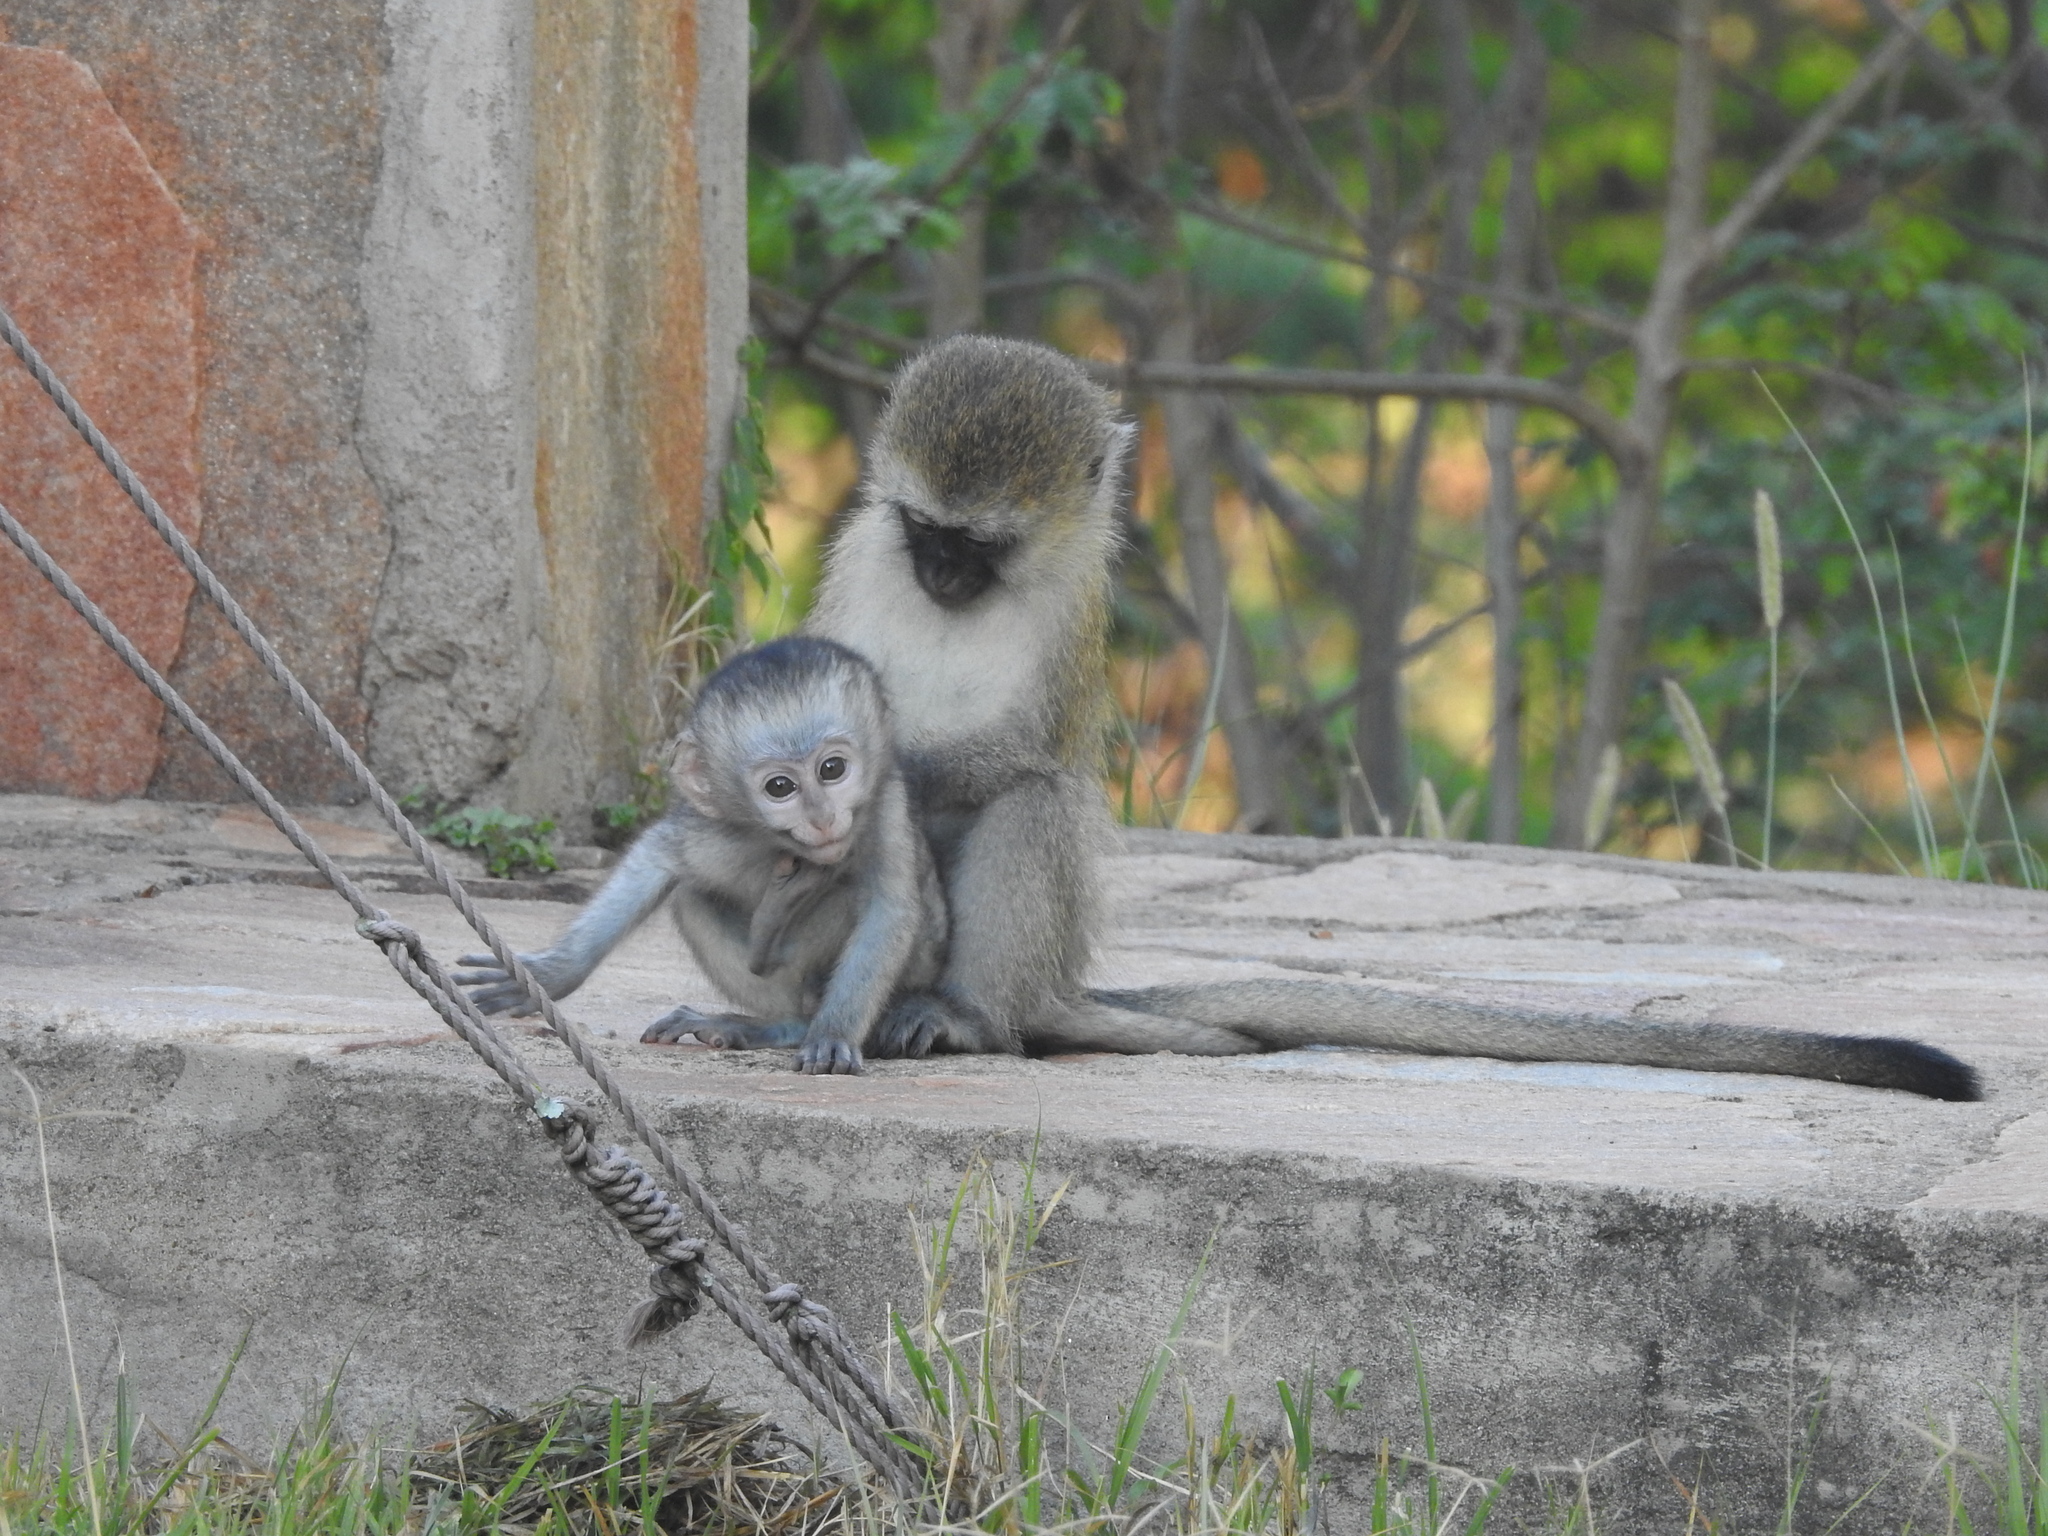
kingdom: Animalia
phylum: Chordata
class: Mammalia
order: Primates
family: Cercopithecidae
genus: Chlorocebus
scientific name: Chlorocebus pygerythrus
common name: Vervet monkey
